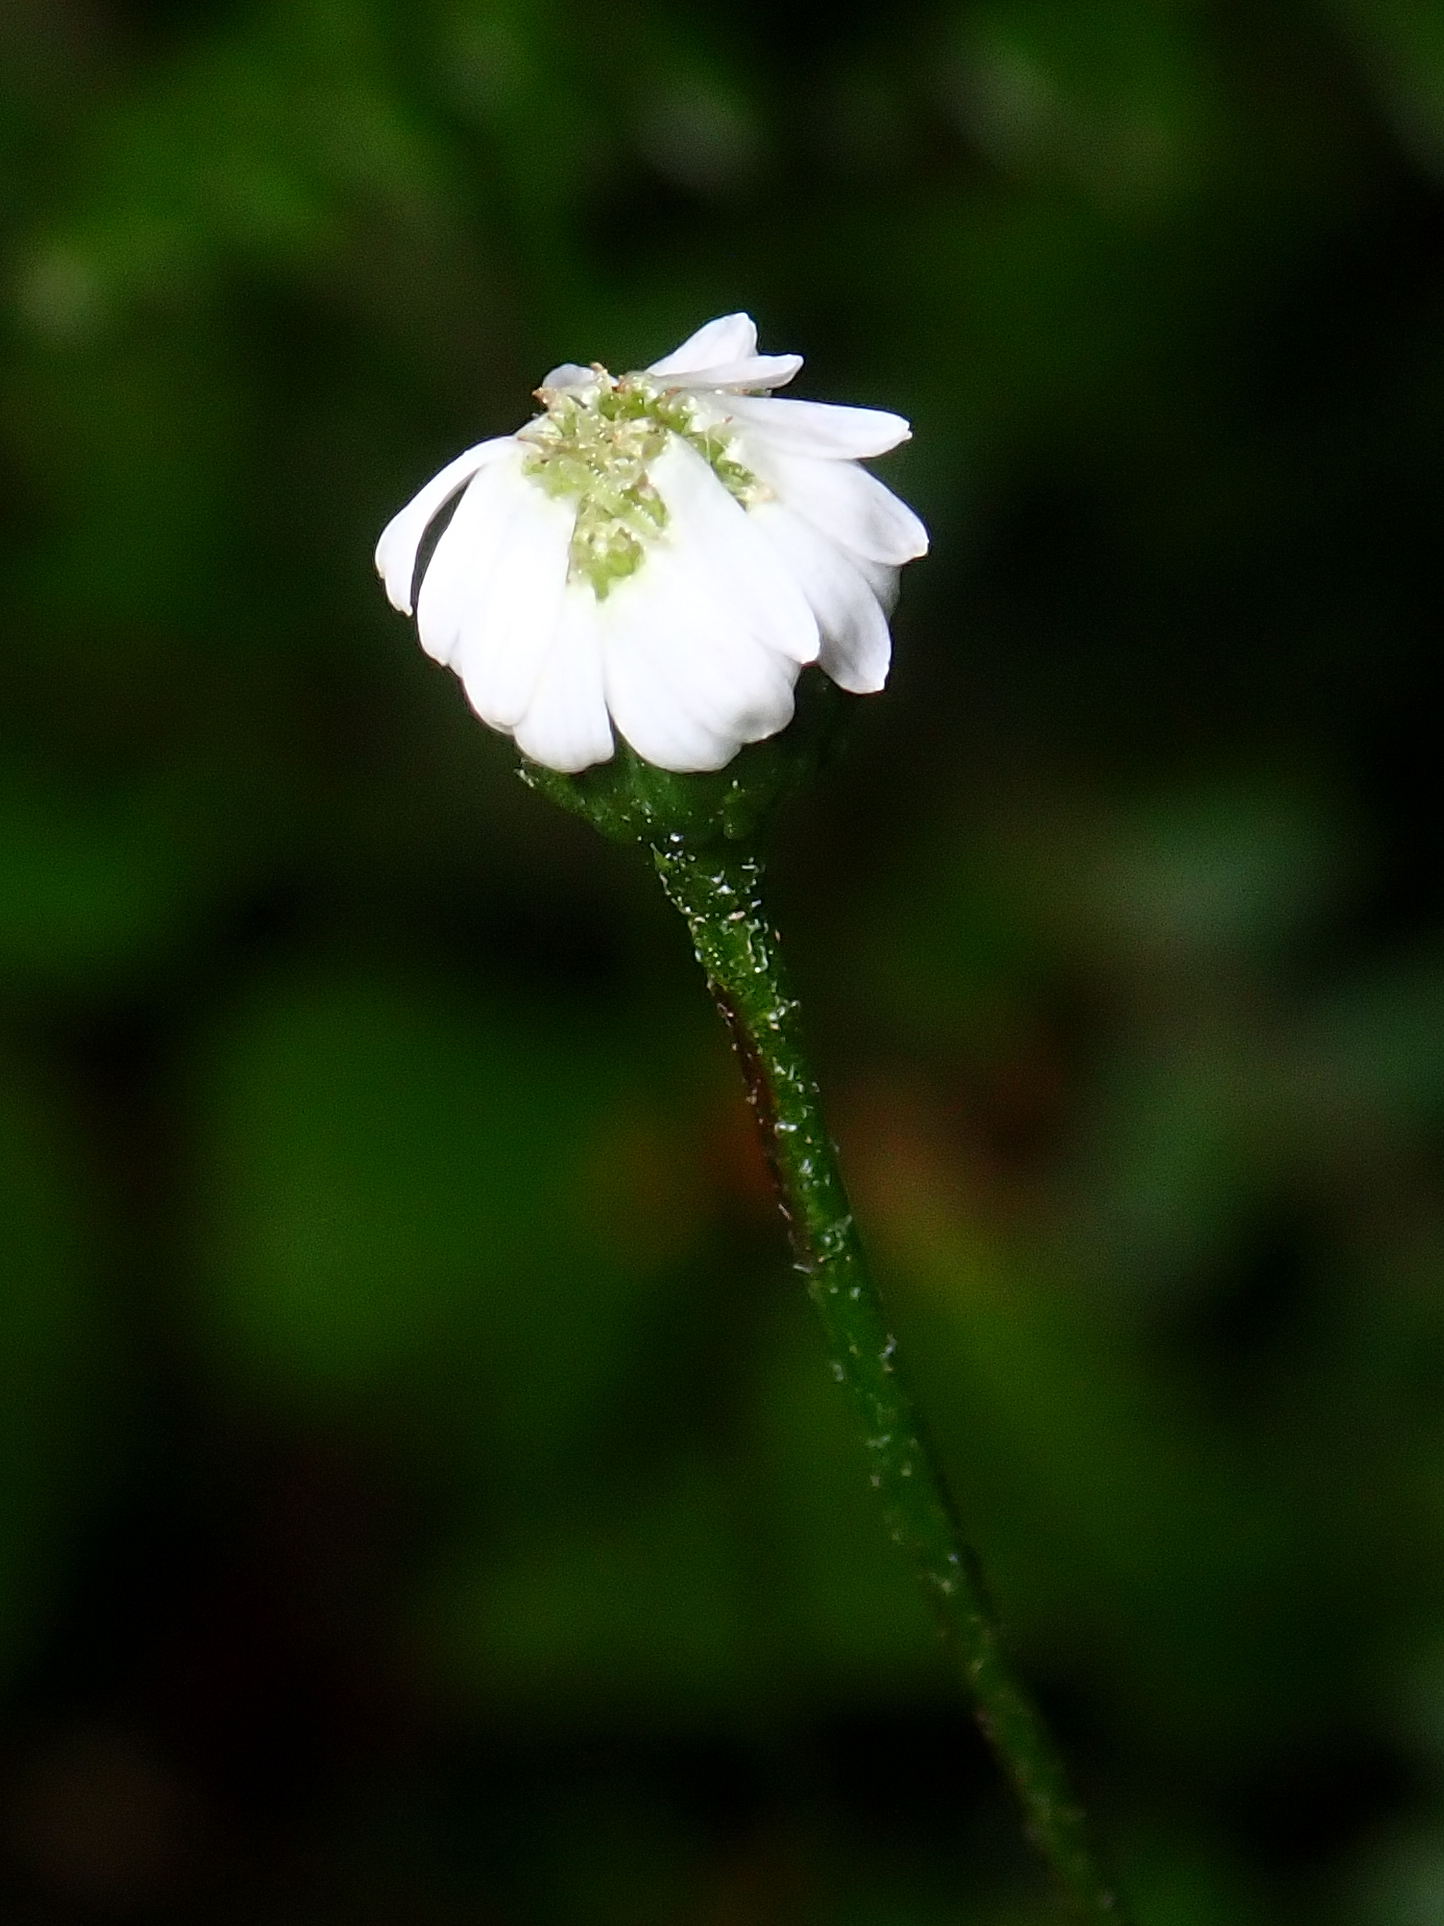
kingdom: Plantae
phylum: Tracheophyta
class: Magnoliopsida
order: Asterales
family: Asteraceae
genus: Lagenophora
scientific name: Lagenophora strangulata
